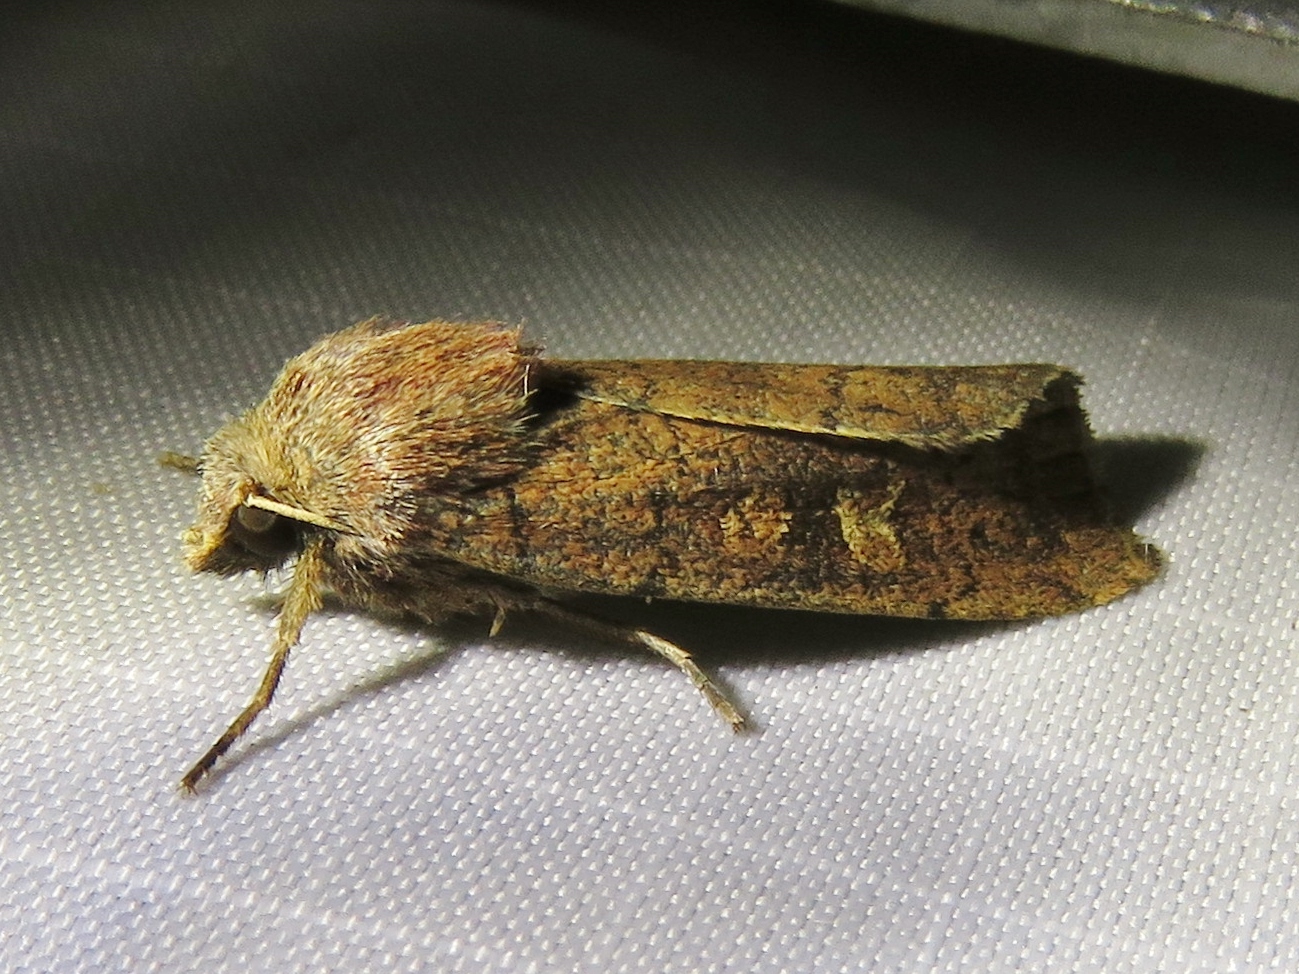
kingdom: Animalia
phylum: Arthropoda
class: Insecta
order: Lepidoptera
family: Noctuidae
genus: Xestia
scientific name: Xestia xanthographa
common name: Square-spot rustic
